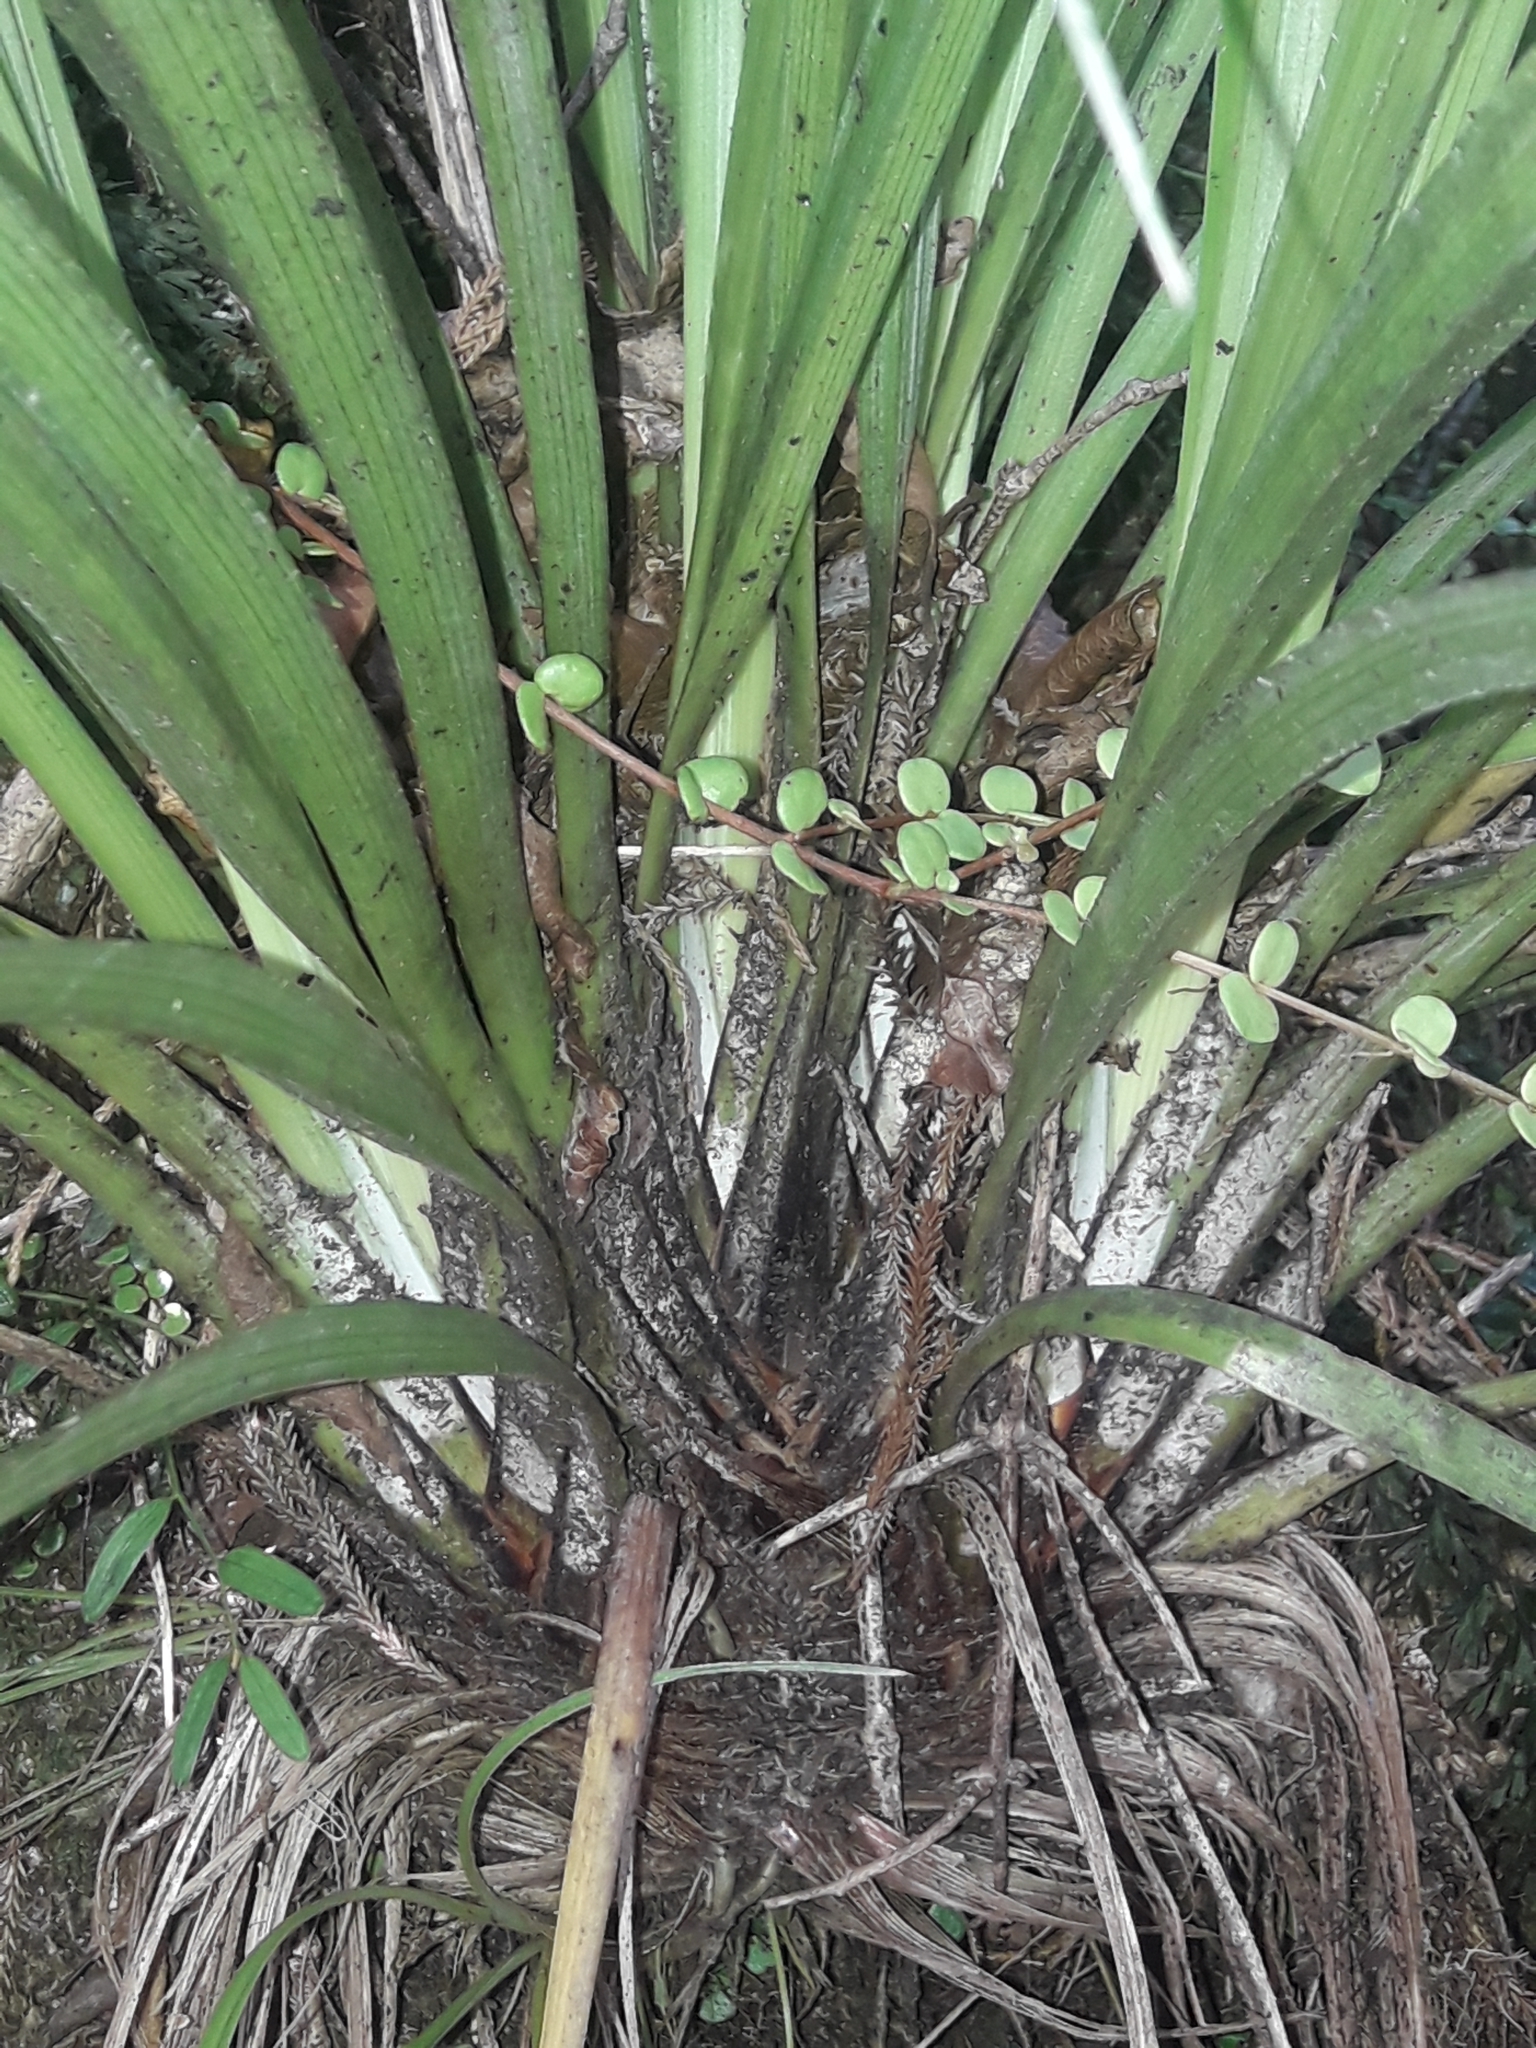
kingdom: Plantae
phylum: Tracheophyta
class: Liliopsida
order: Asparagales
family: Asteliaceae
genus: Astelia
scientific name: Astelia solandri
